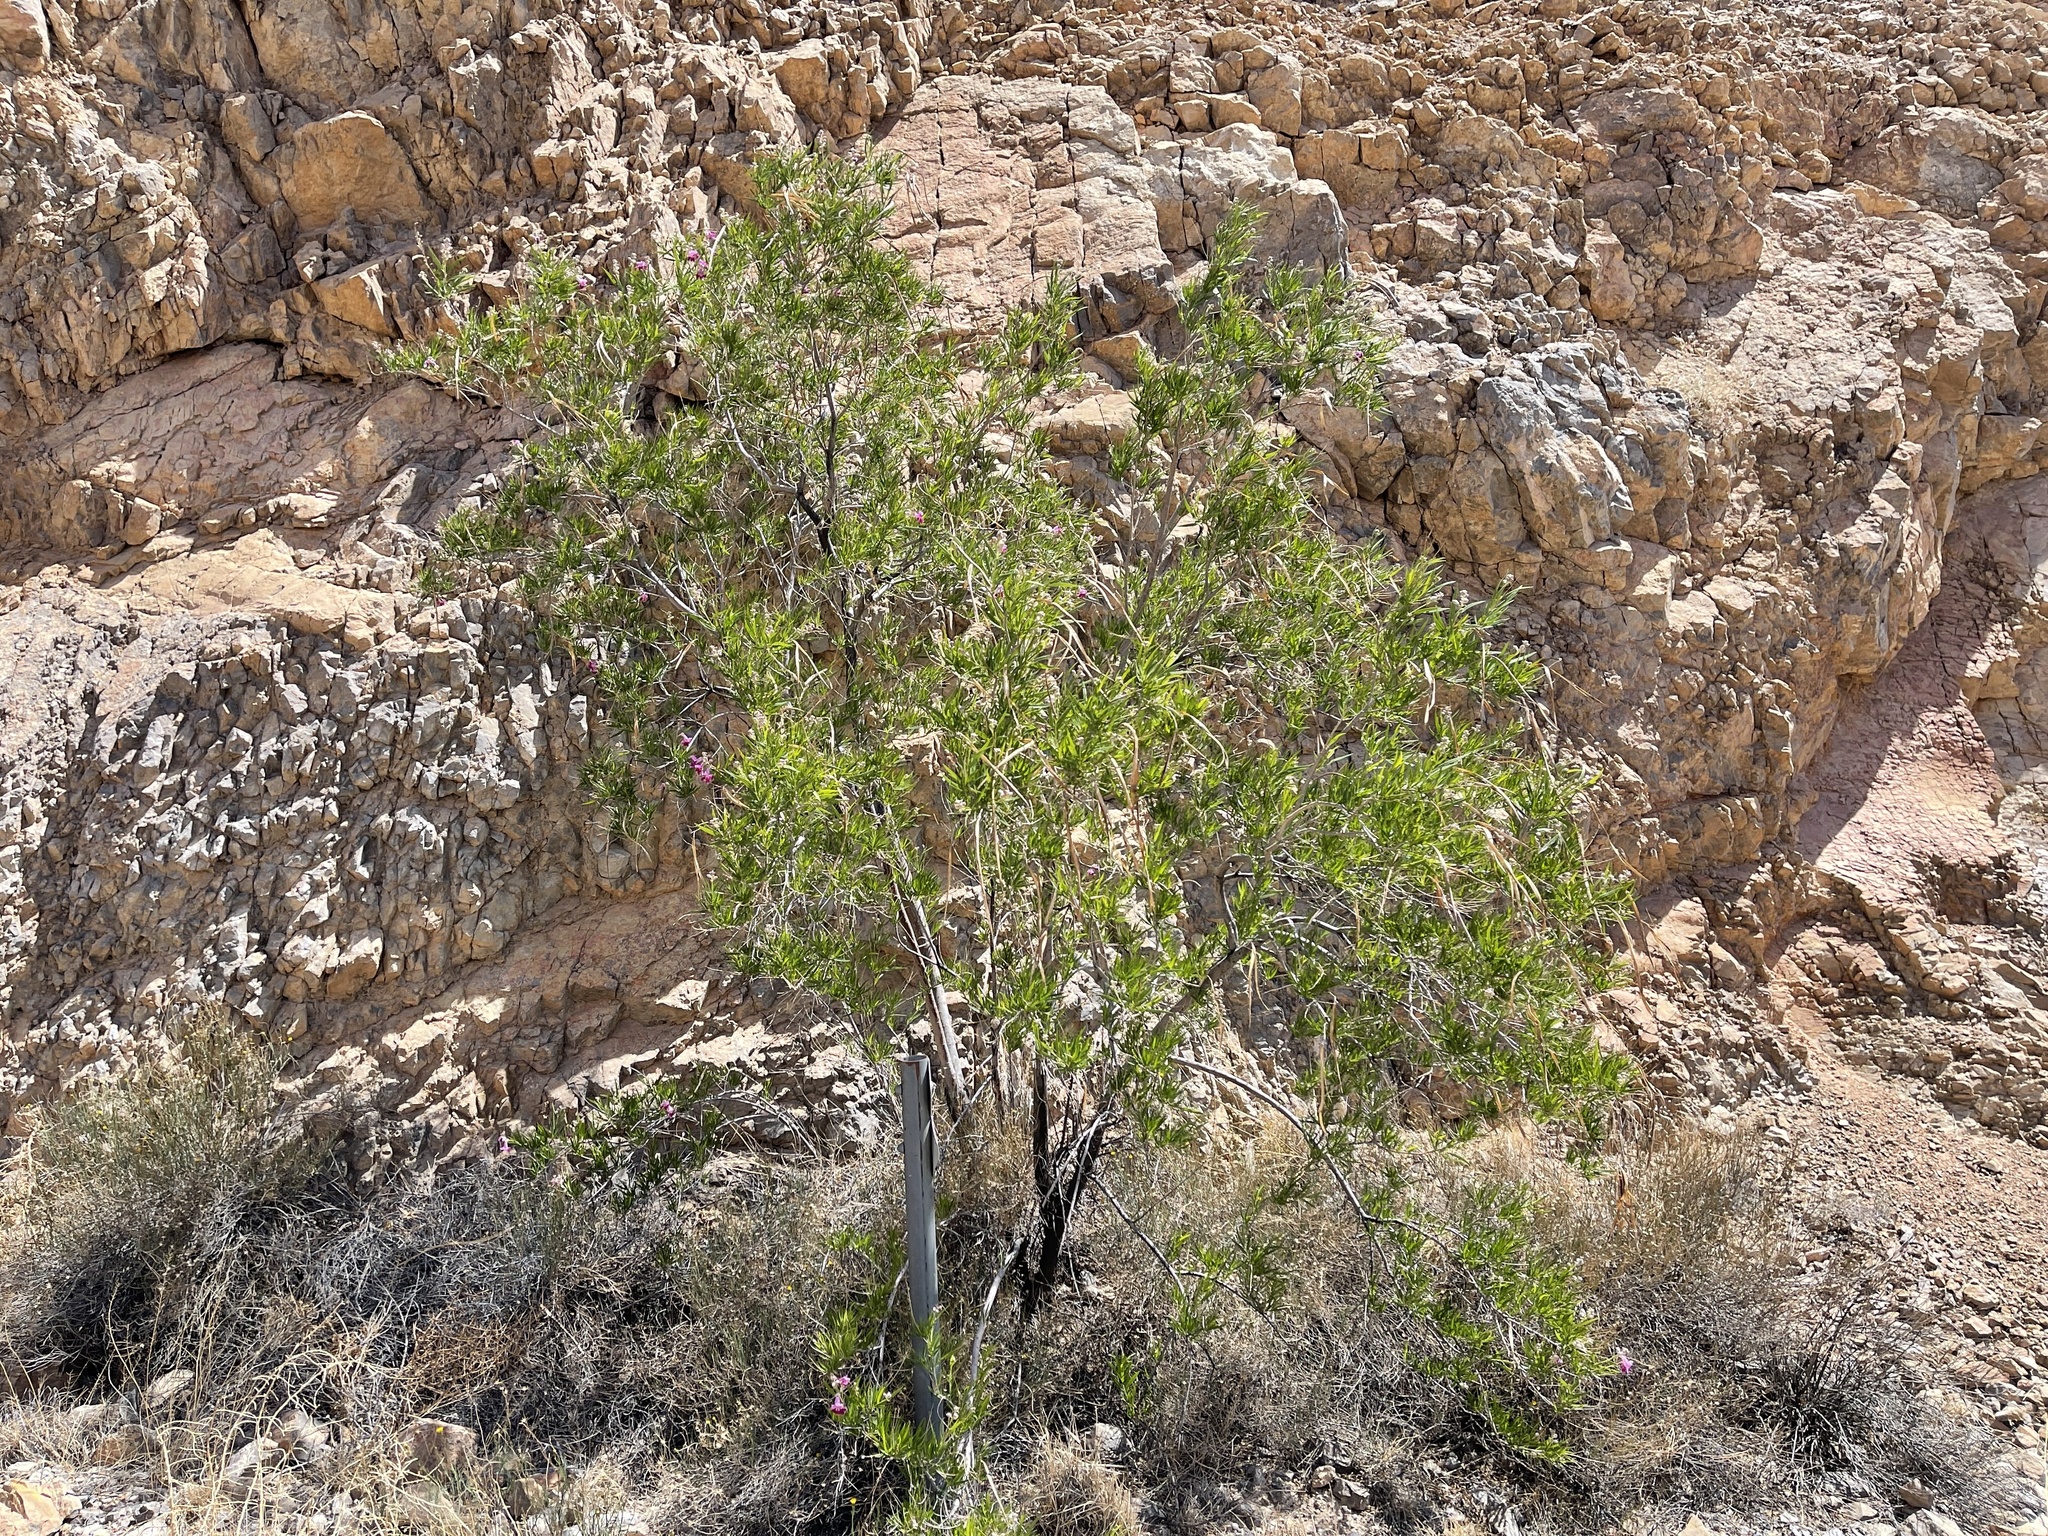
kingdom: Plantae
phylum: Tracheophyta
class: Magnoliopsida
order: Lamiales
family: Bignoniaceae
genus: Chilopsis
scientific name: Chilopsis linearis
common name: Desert-willow
